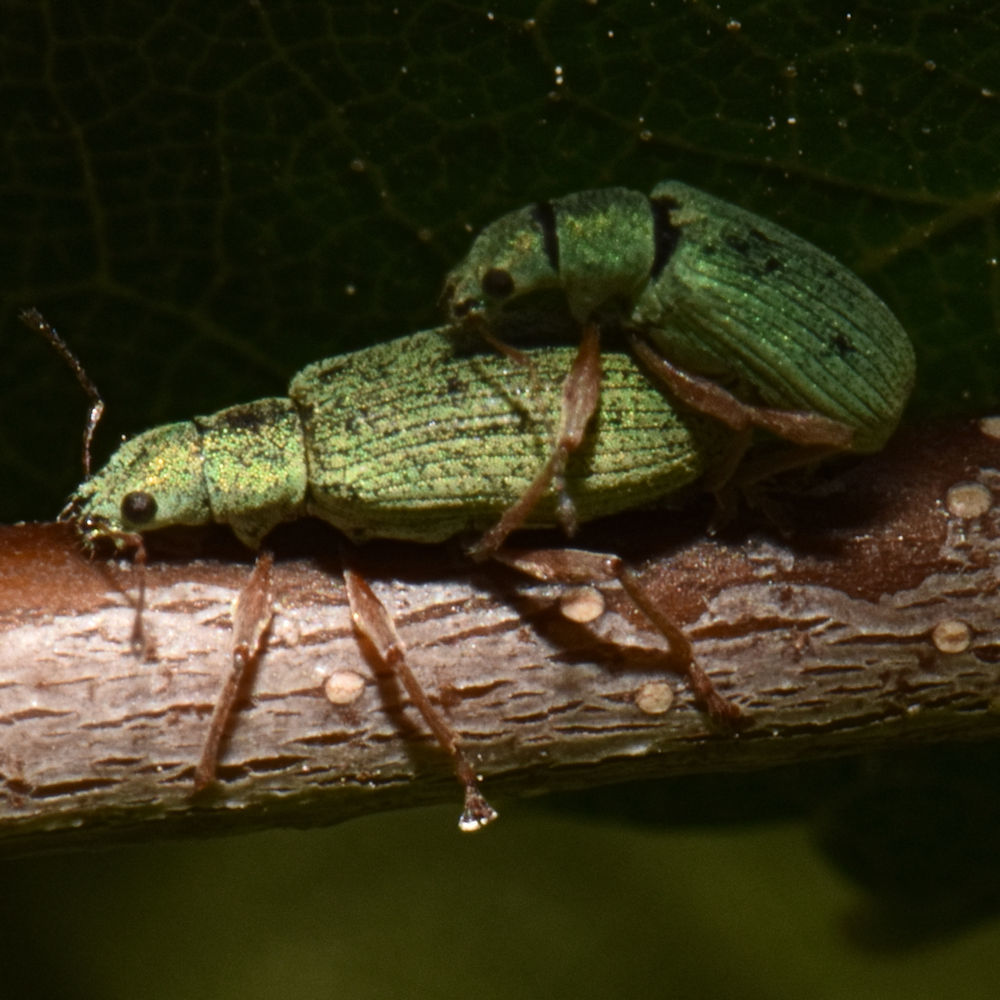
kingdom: Animalia
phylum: Arthropoda
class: Insecta
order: Coleoptera
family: Curculionidae
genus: Polydrusus
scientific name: Polydrusus impressifrons
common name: Weevil
